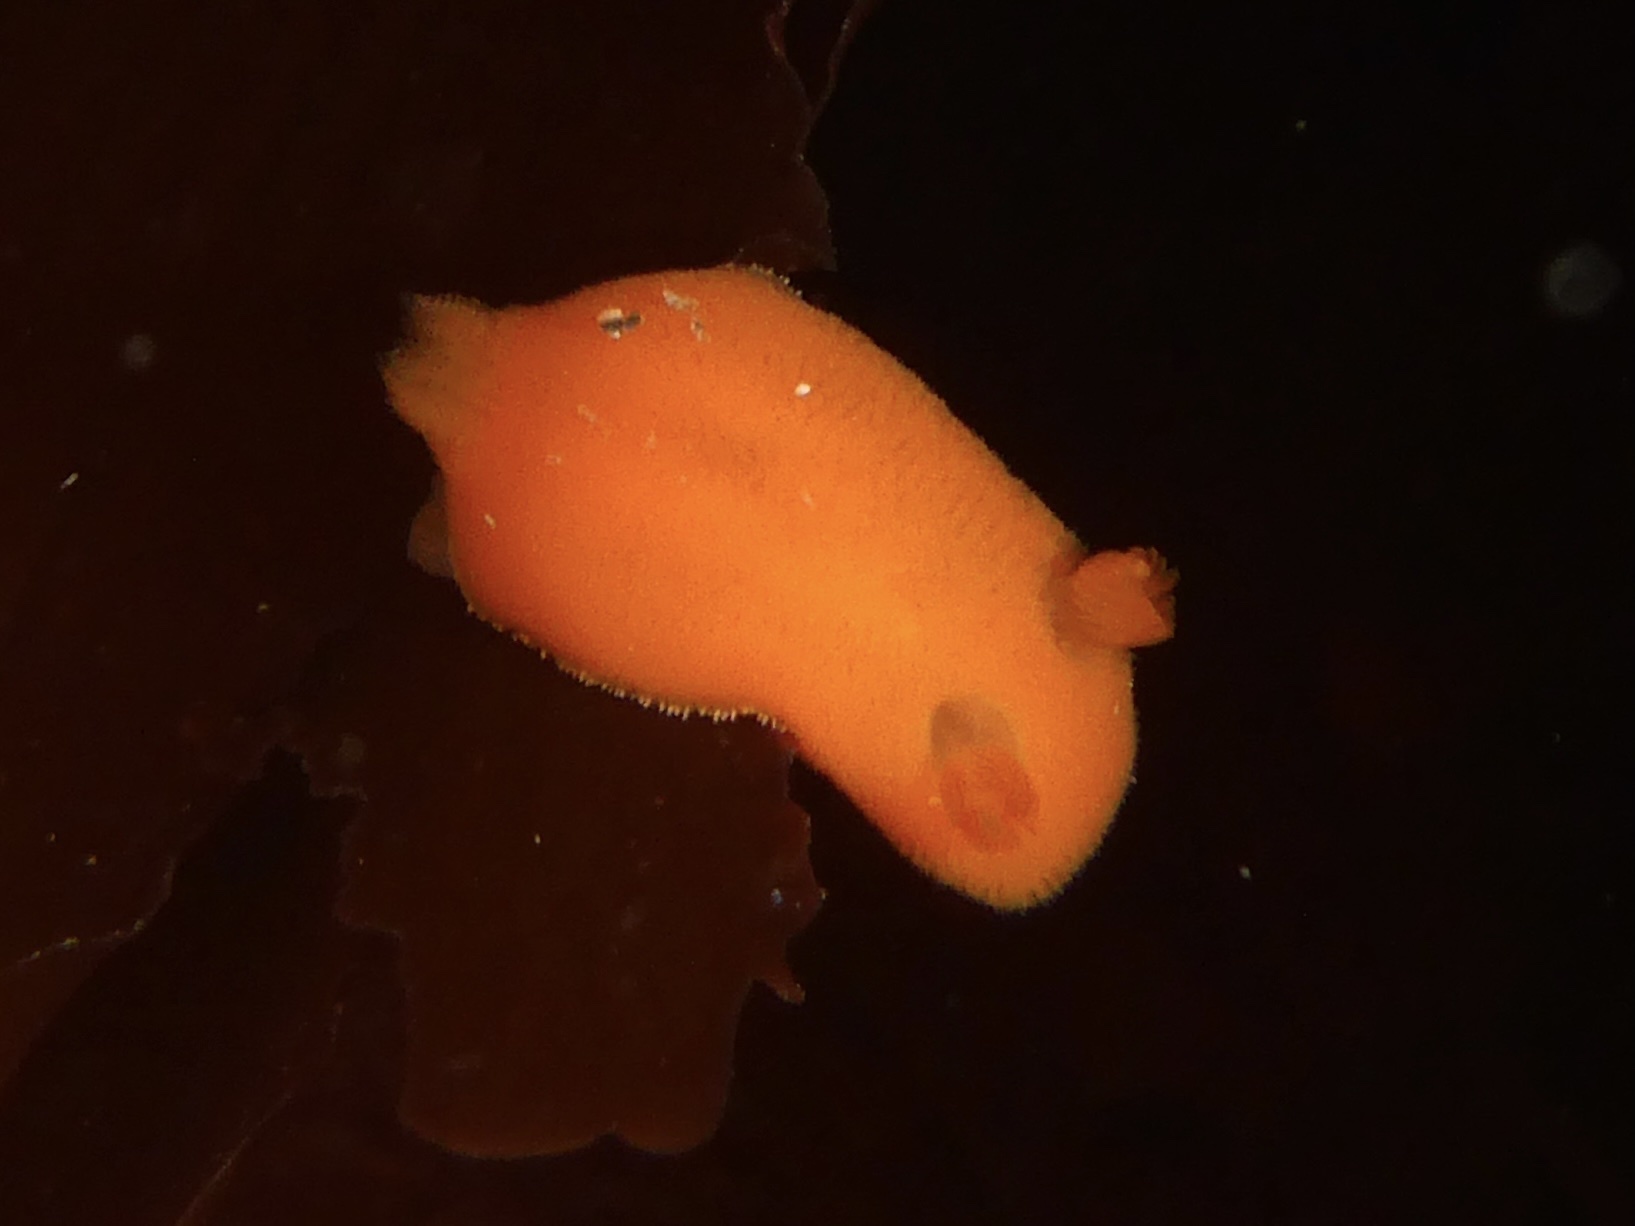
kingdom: Animalia
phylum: Mollusca
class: Gastropoda
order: Nudibranchia
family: Discodorididae
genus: Rostanga
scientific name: Rostanga pulchra
